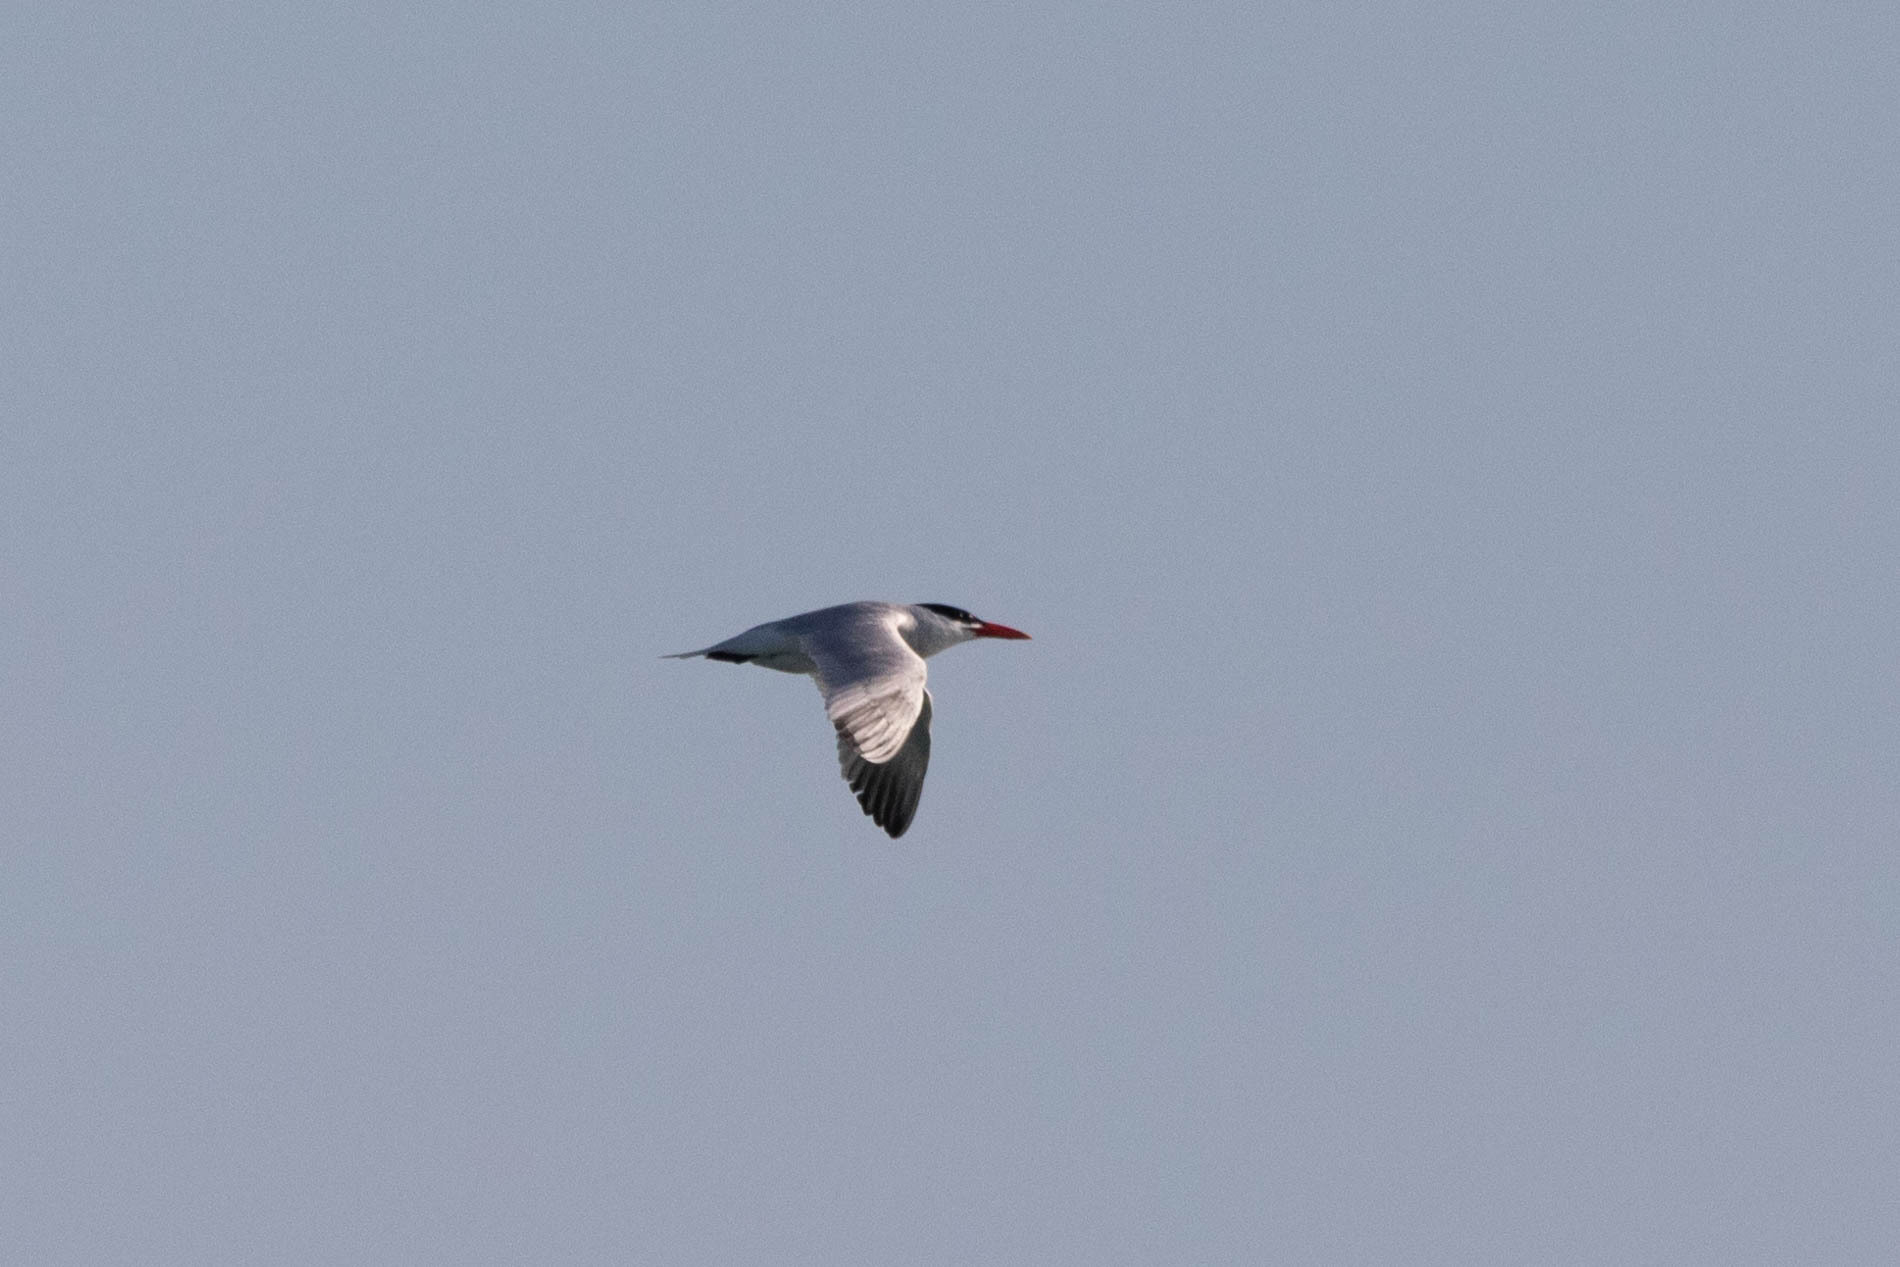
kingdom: Animalia
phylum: Chordata
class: Aves
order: Charadriiformes
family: Laridae
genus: Hydroprogne
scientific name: Hydroprogne caspia
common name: Caspian tern
